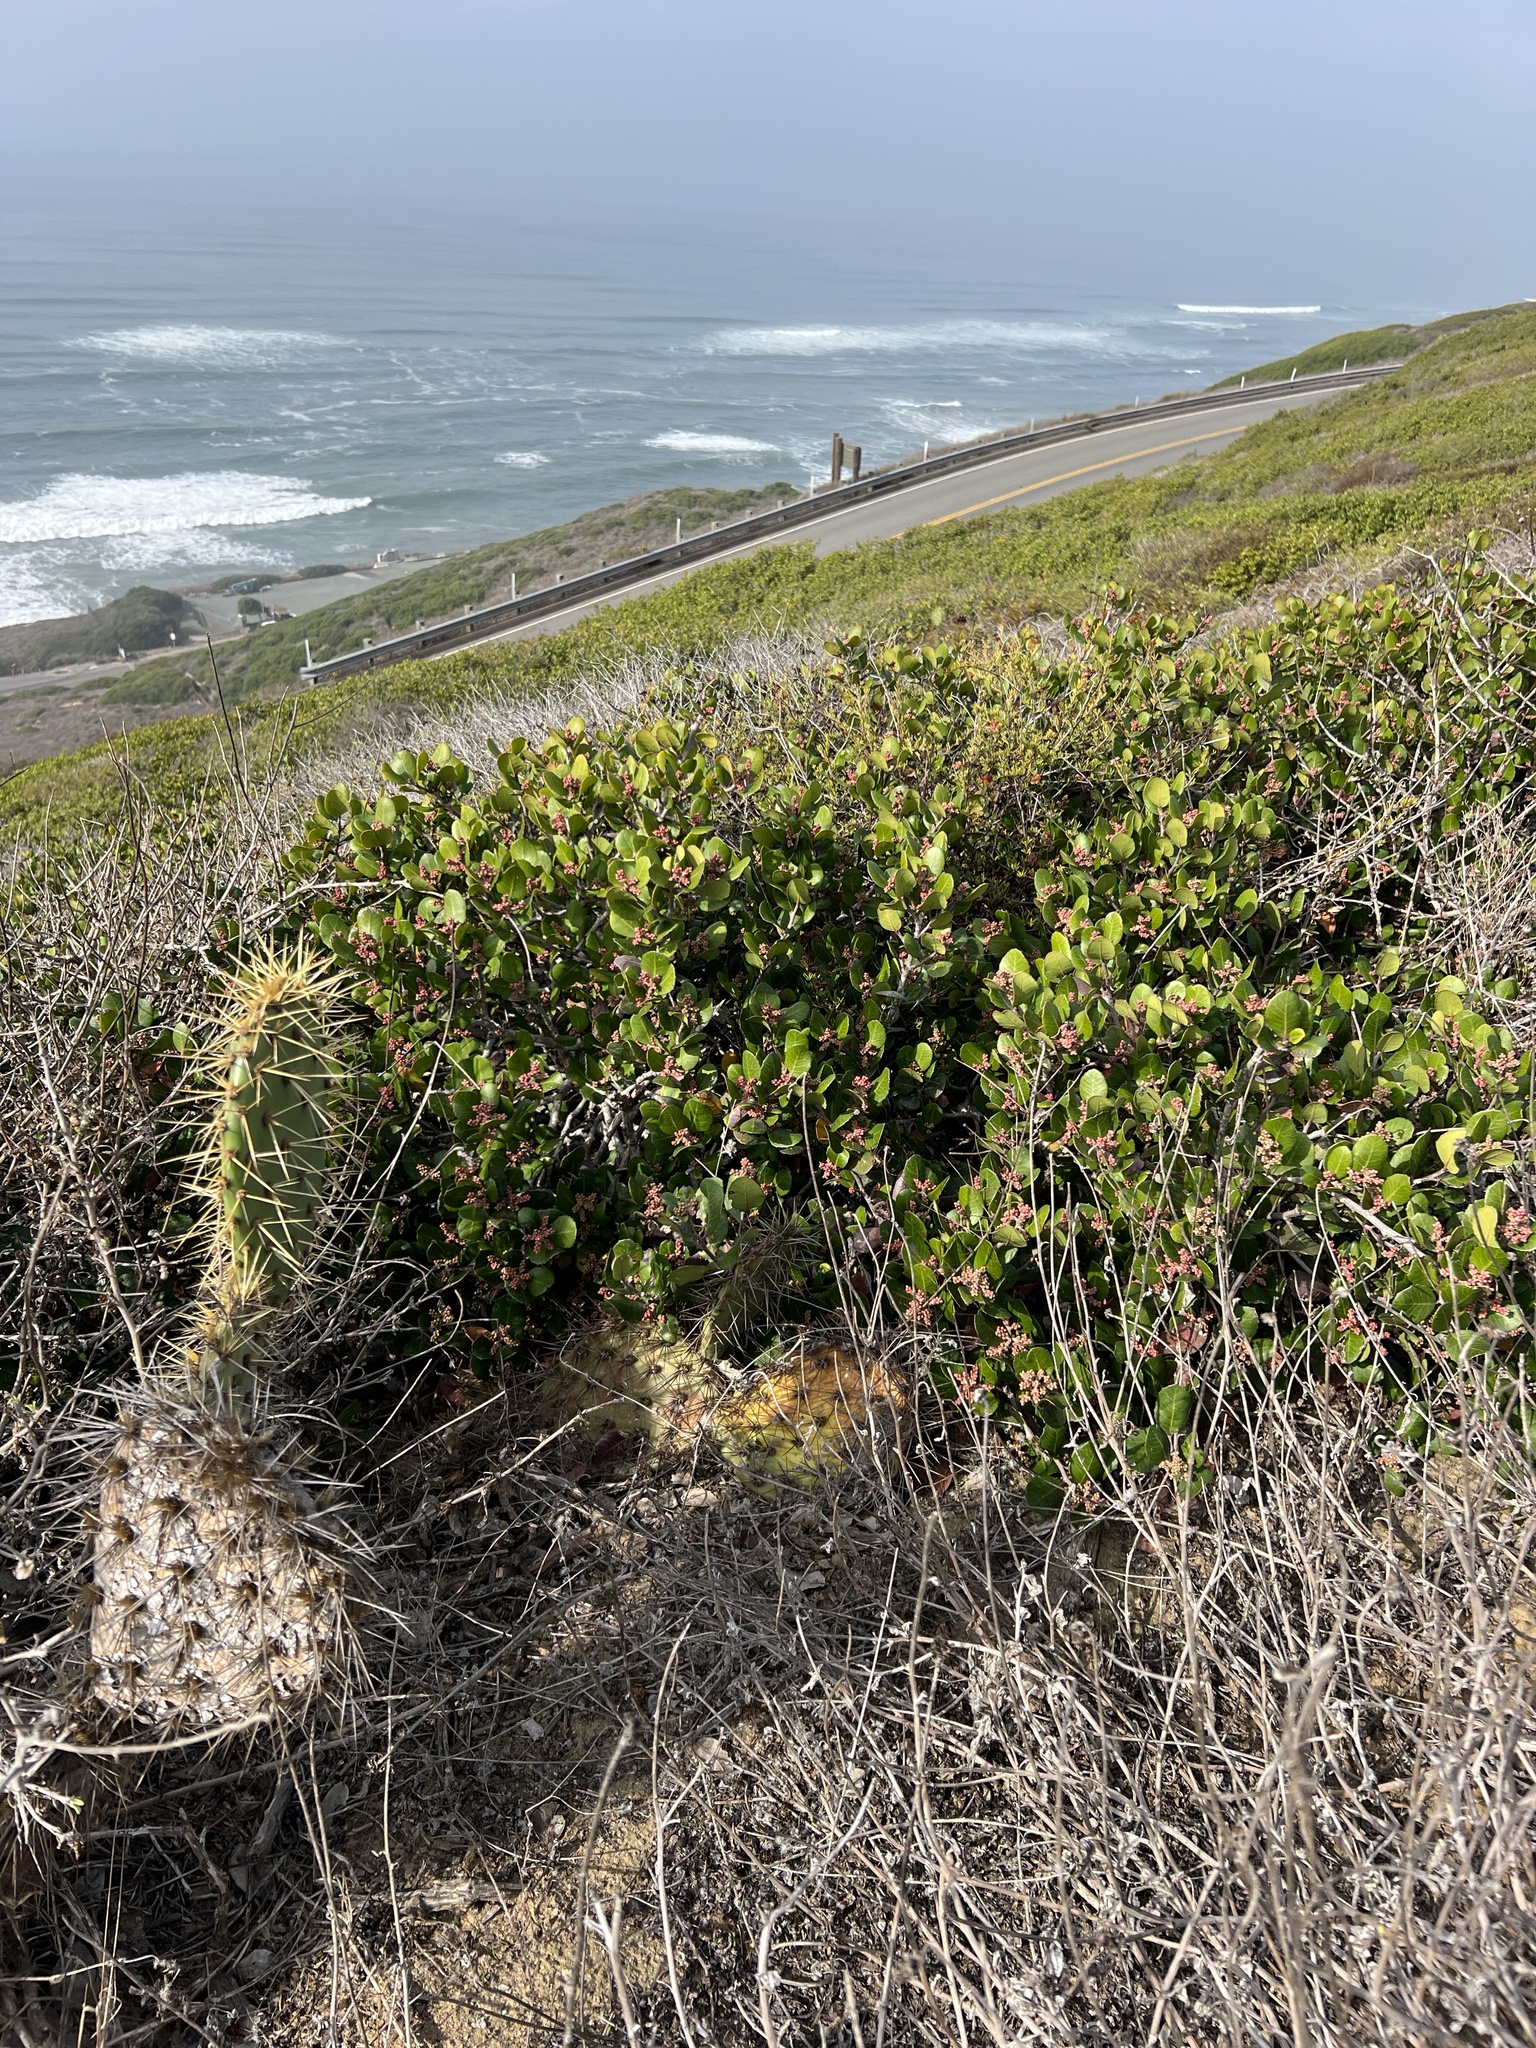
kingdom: Plantae
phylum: Tracheophyta
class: Magnoliopsida
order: Sapindales
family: Anacardiaceae
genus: Rhus
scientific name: Rhus integrifolia
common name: Lemonade sumac
